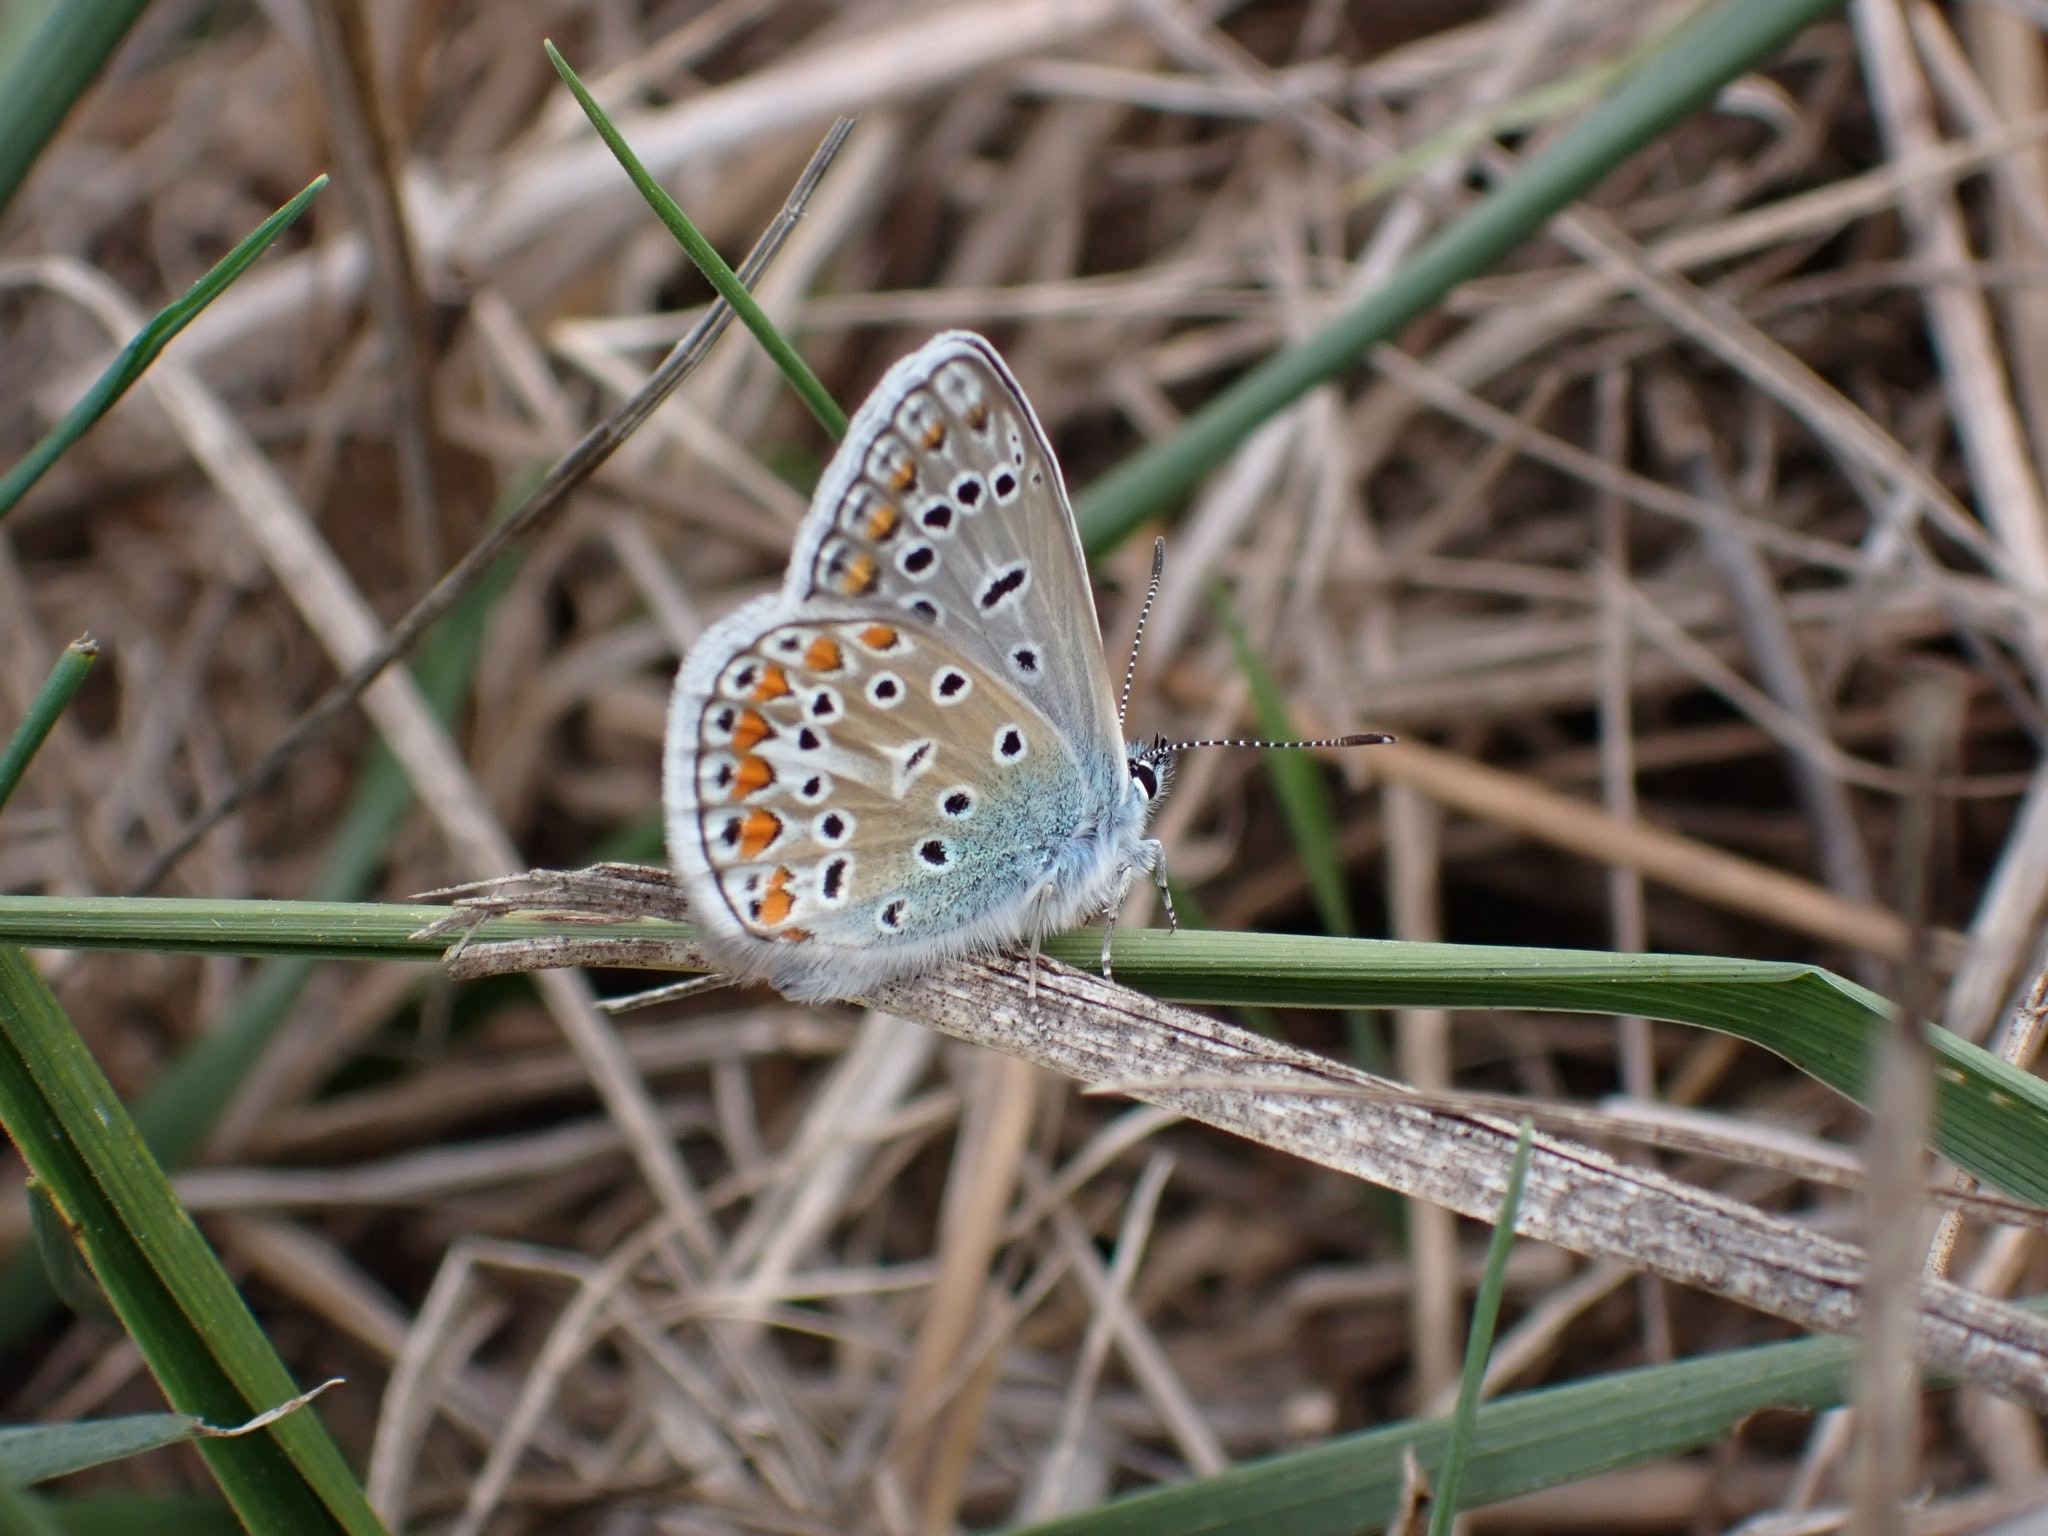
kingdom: Animalia
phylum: Arthropoda
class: Insecta
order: Lepidoptera
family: Lycaenidae
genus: Polyommatus
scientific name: Polyommatus icarus
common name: Common blue
